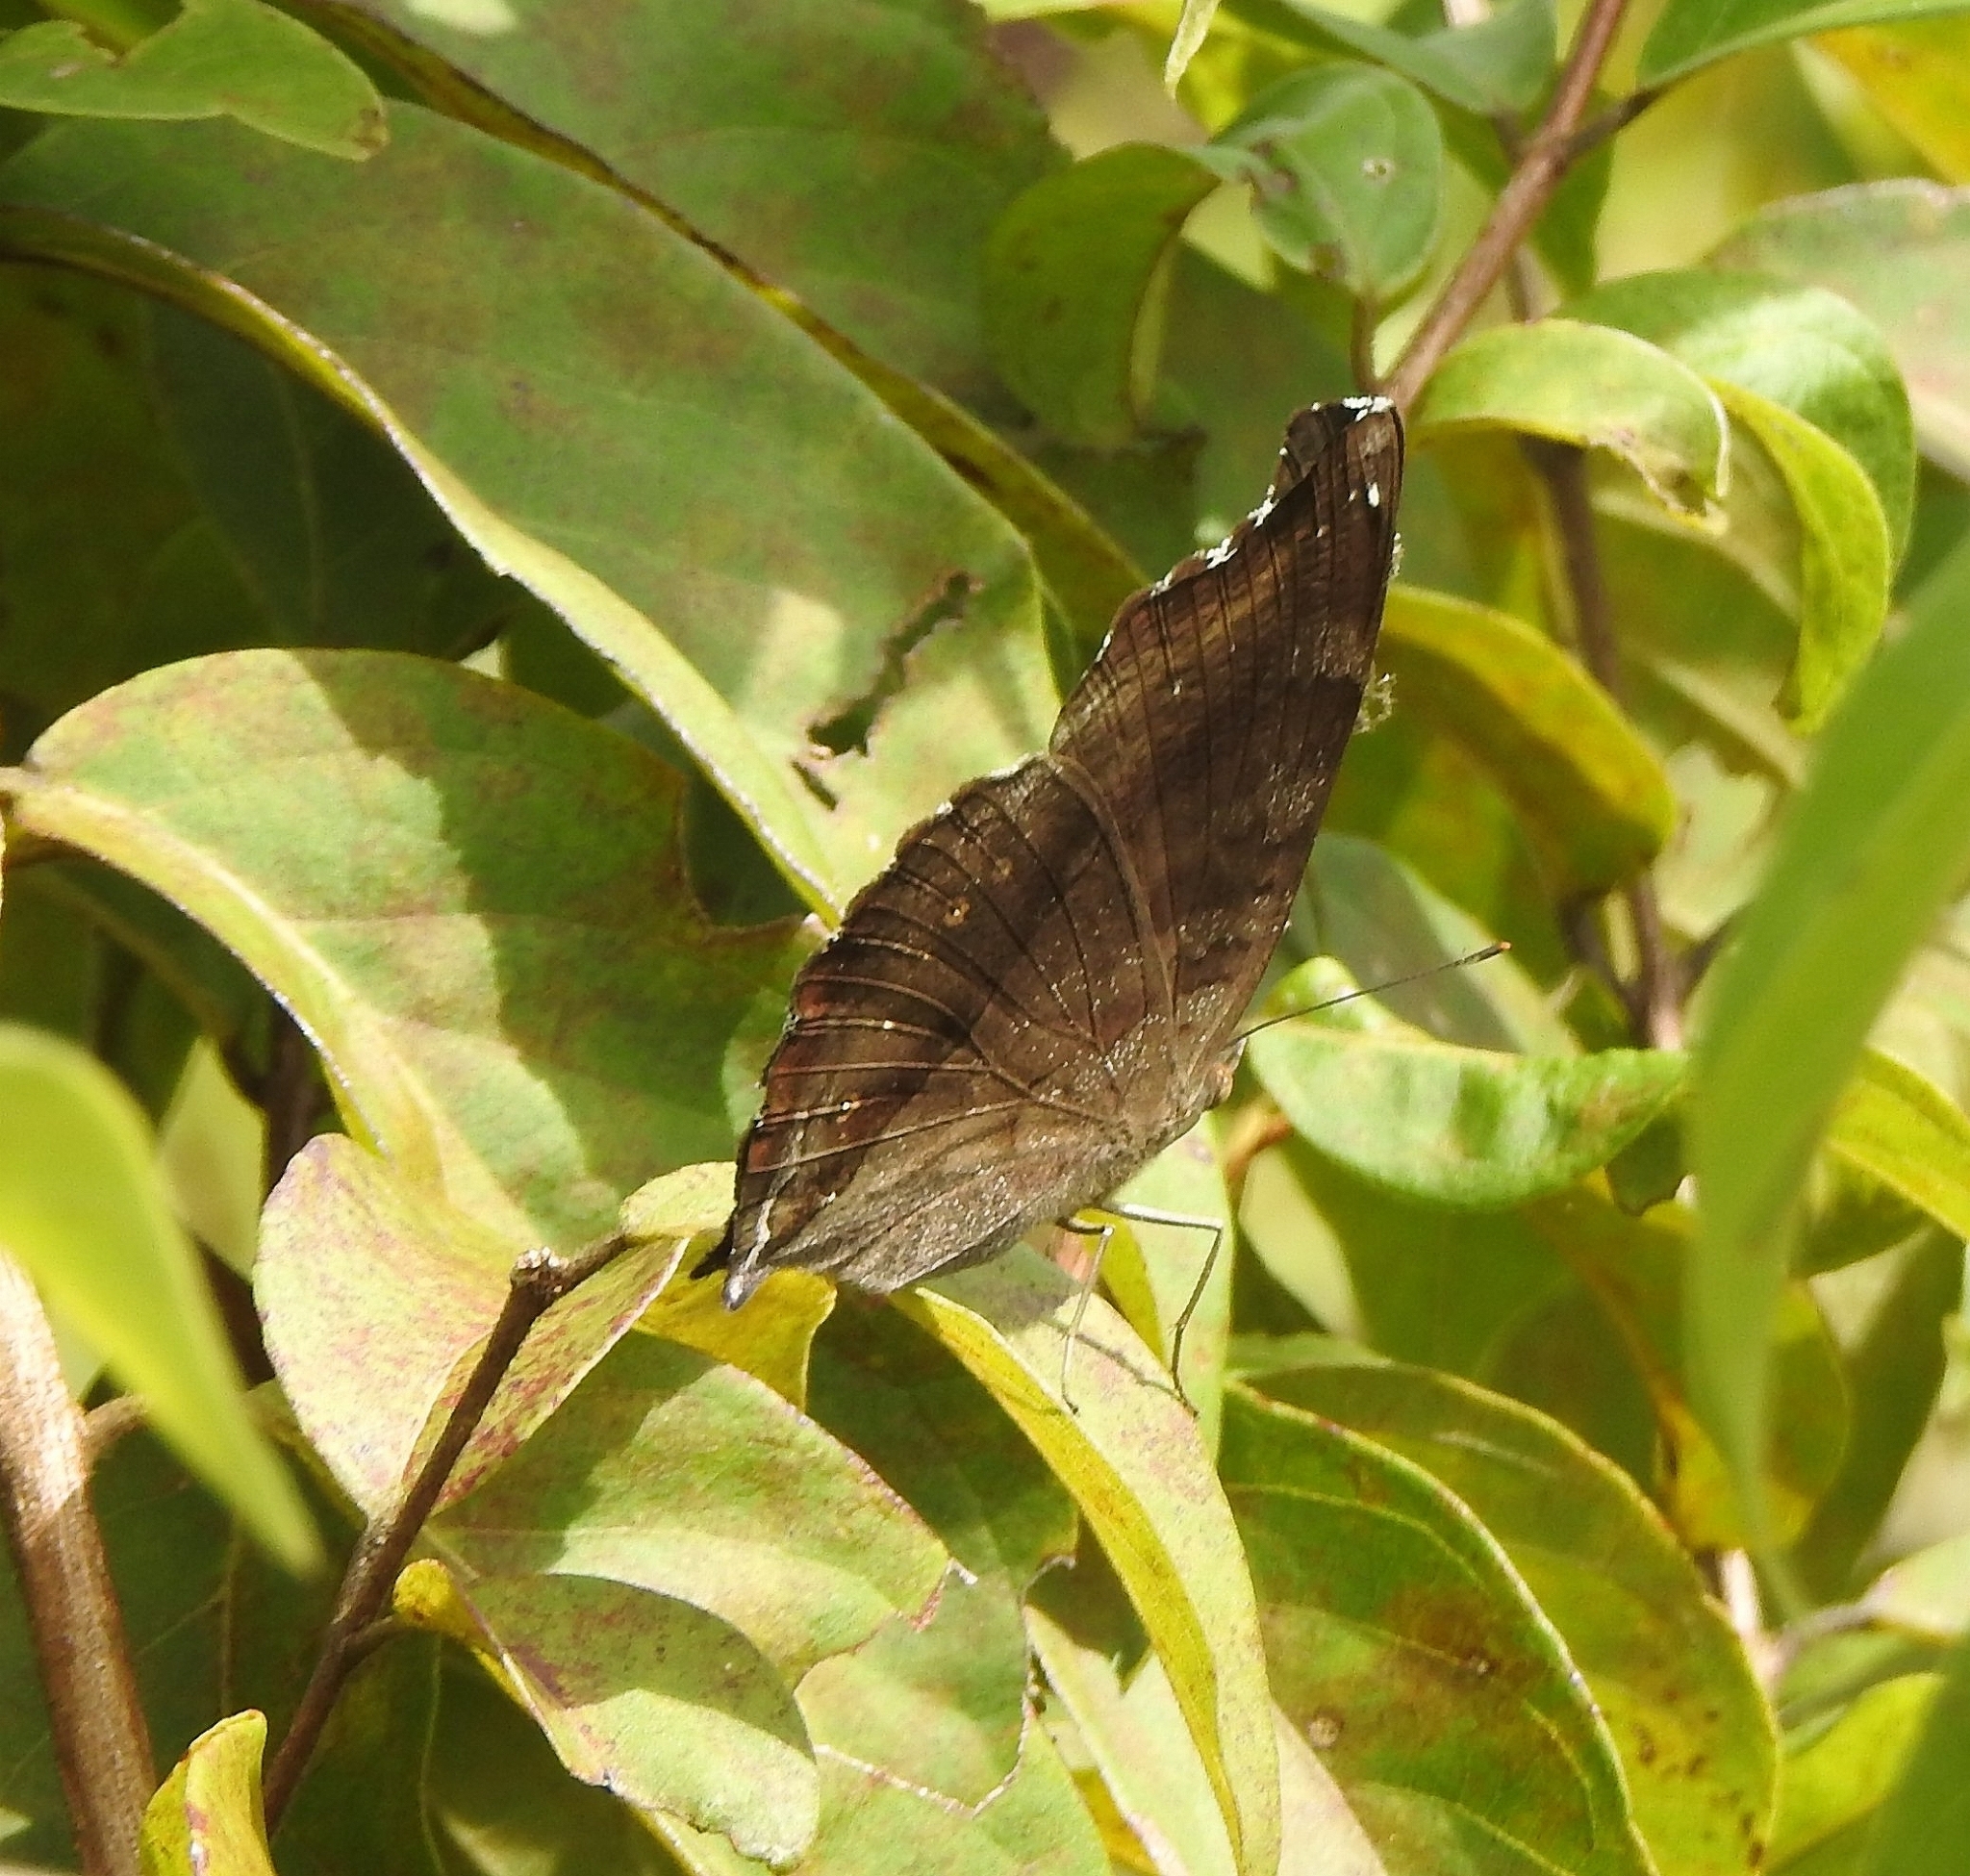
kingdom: Animalia
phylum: Arthropoda
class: Insecta
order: Lepidoptera
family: Nymphalidae
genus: Junonia
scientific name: Junonia iphita
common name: Chocolate pansy
